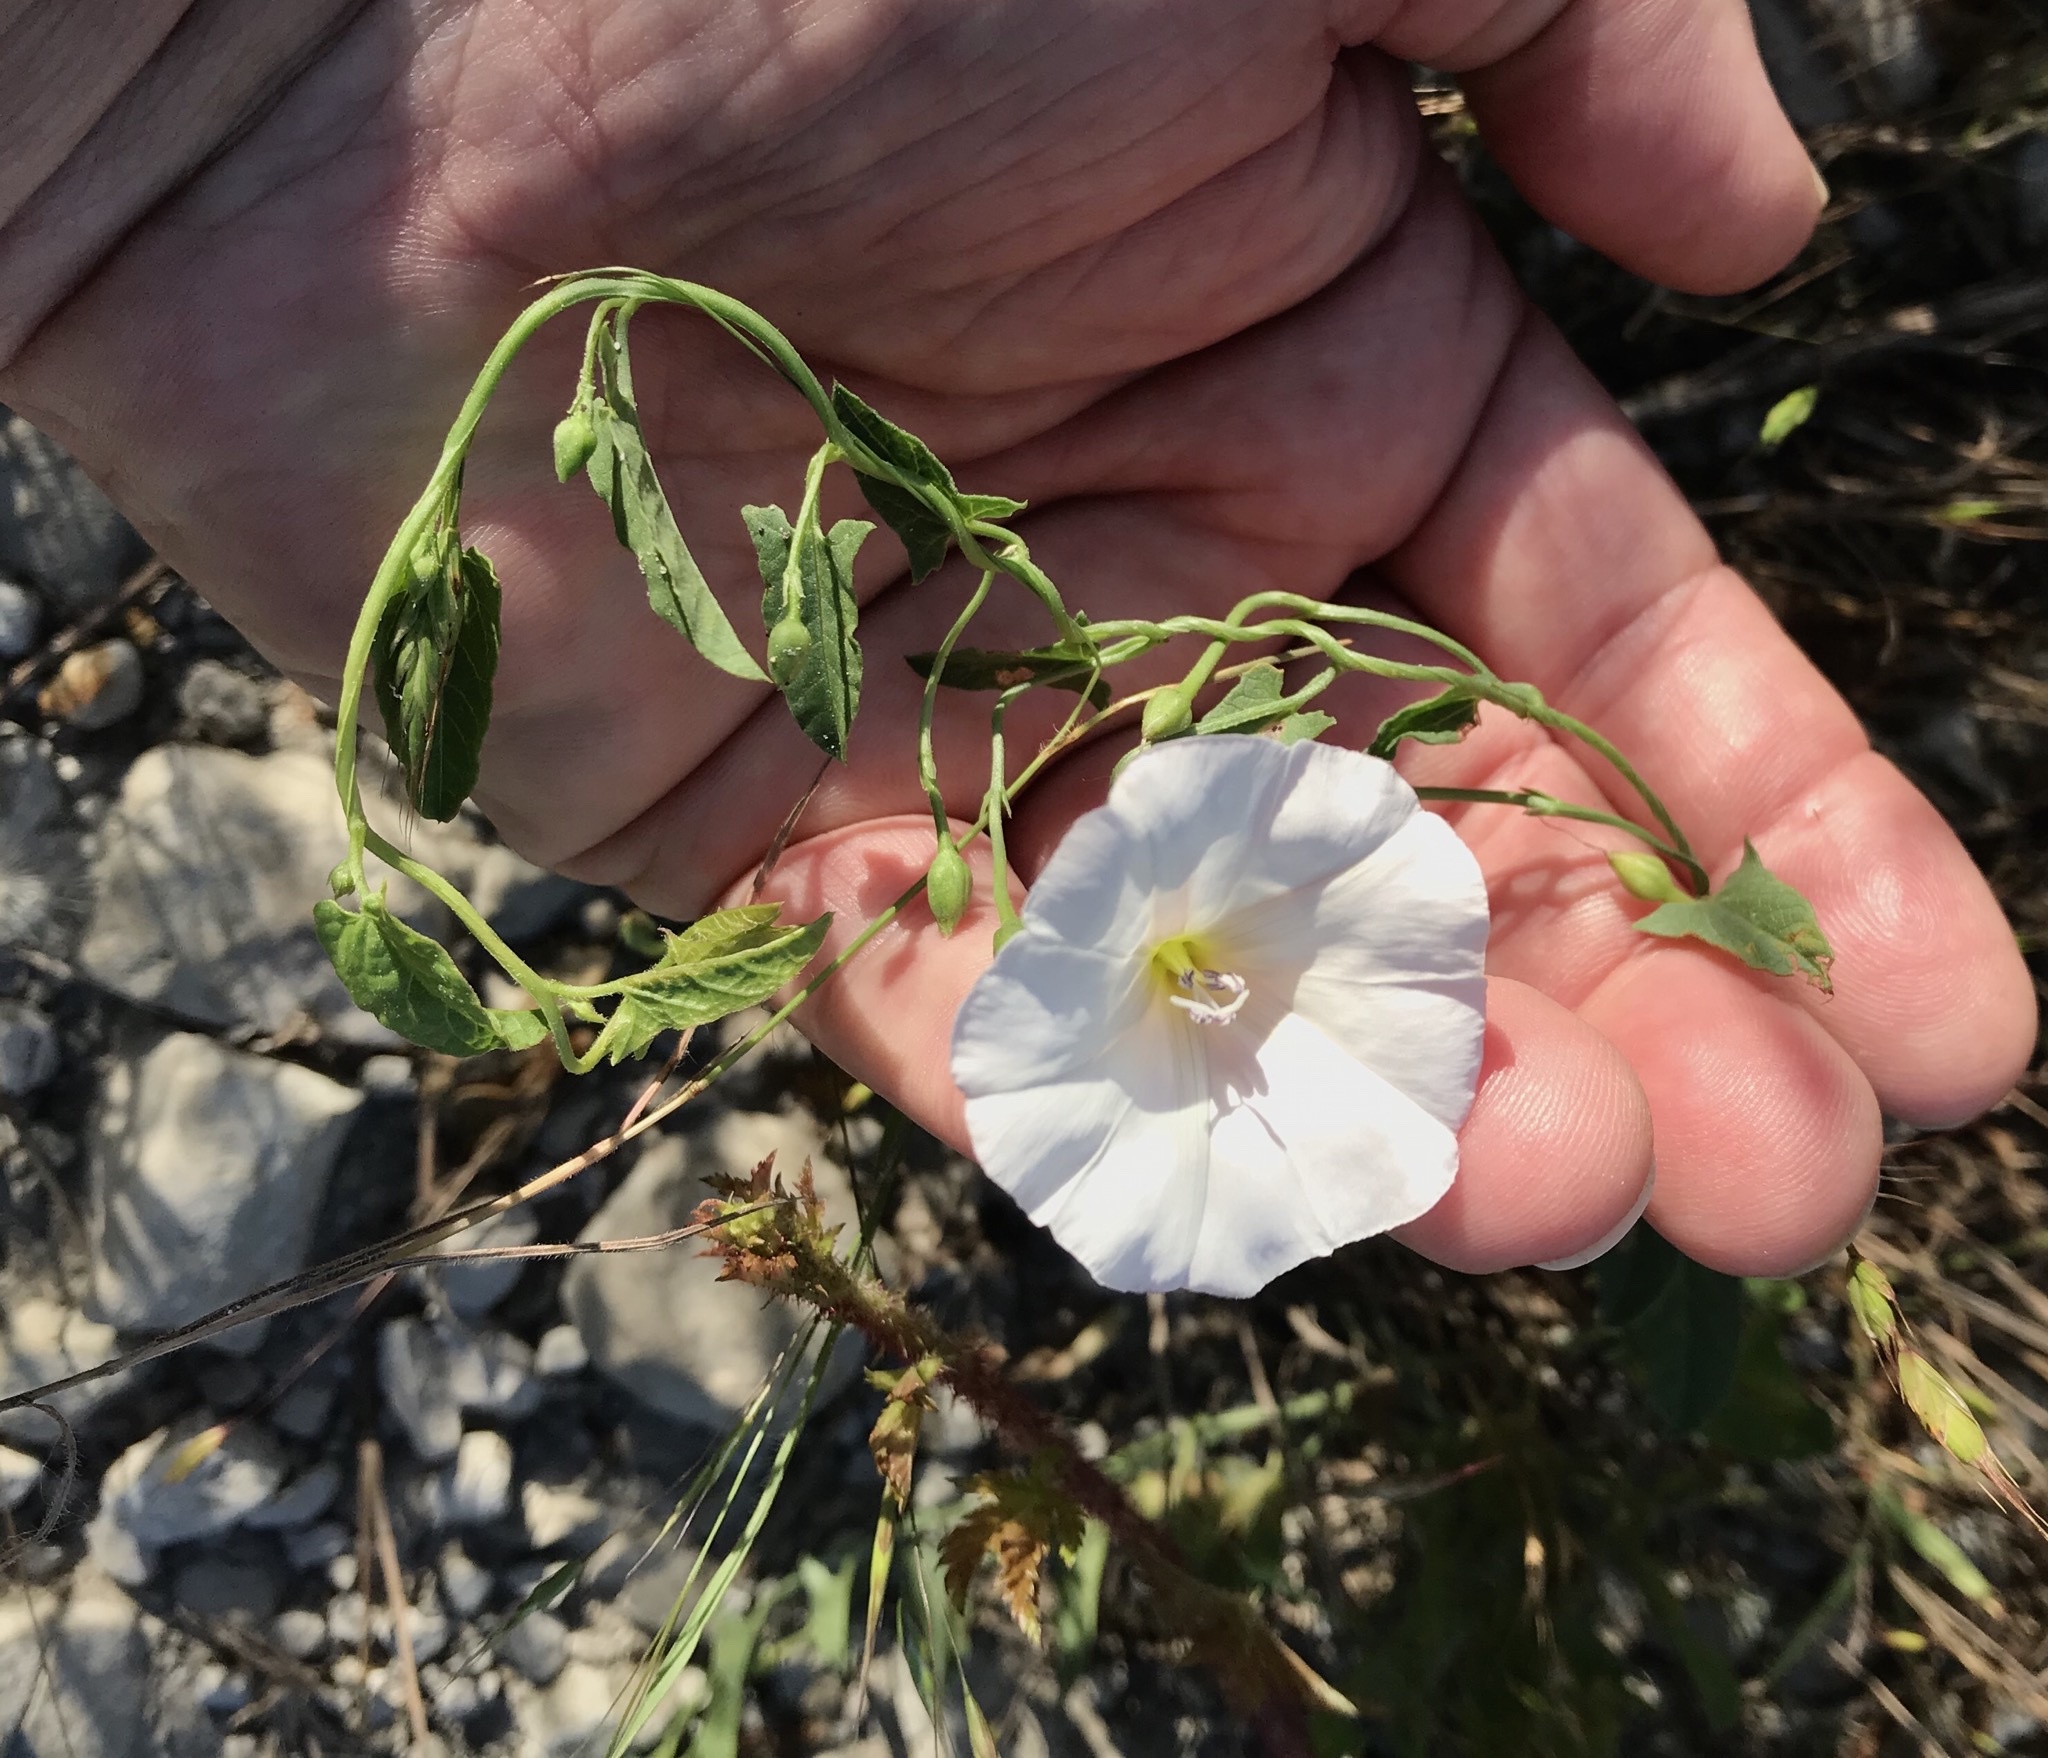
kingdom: Plantae
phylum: Tracheophyta
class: Magnoliopsida
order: Solanales
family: Convolvulaceae
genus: Convolvulus
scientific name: Convolvulus arvensis
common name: Field bindweed
